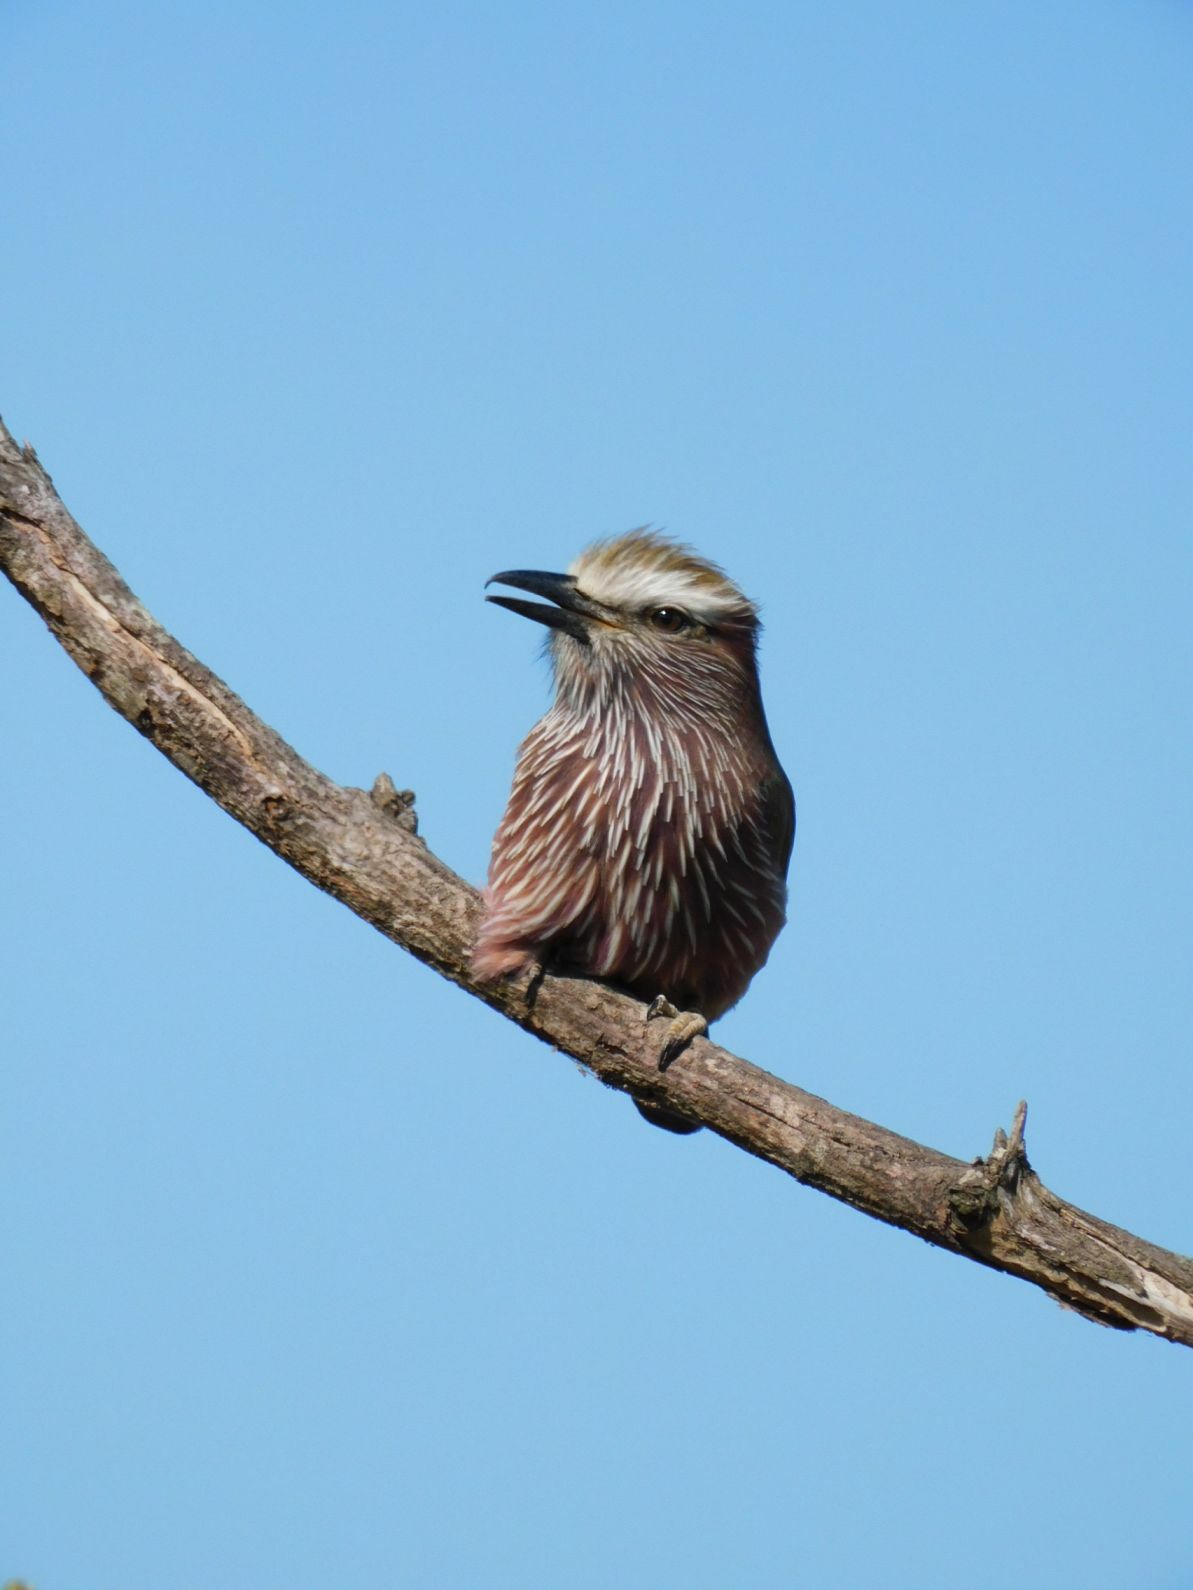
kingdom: Animalia
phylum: Chordata
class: Aves
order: Coraciiformes
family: Coraciidae
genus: Coracias
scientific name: Coracias naevius
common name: Purple roller
